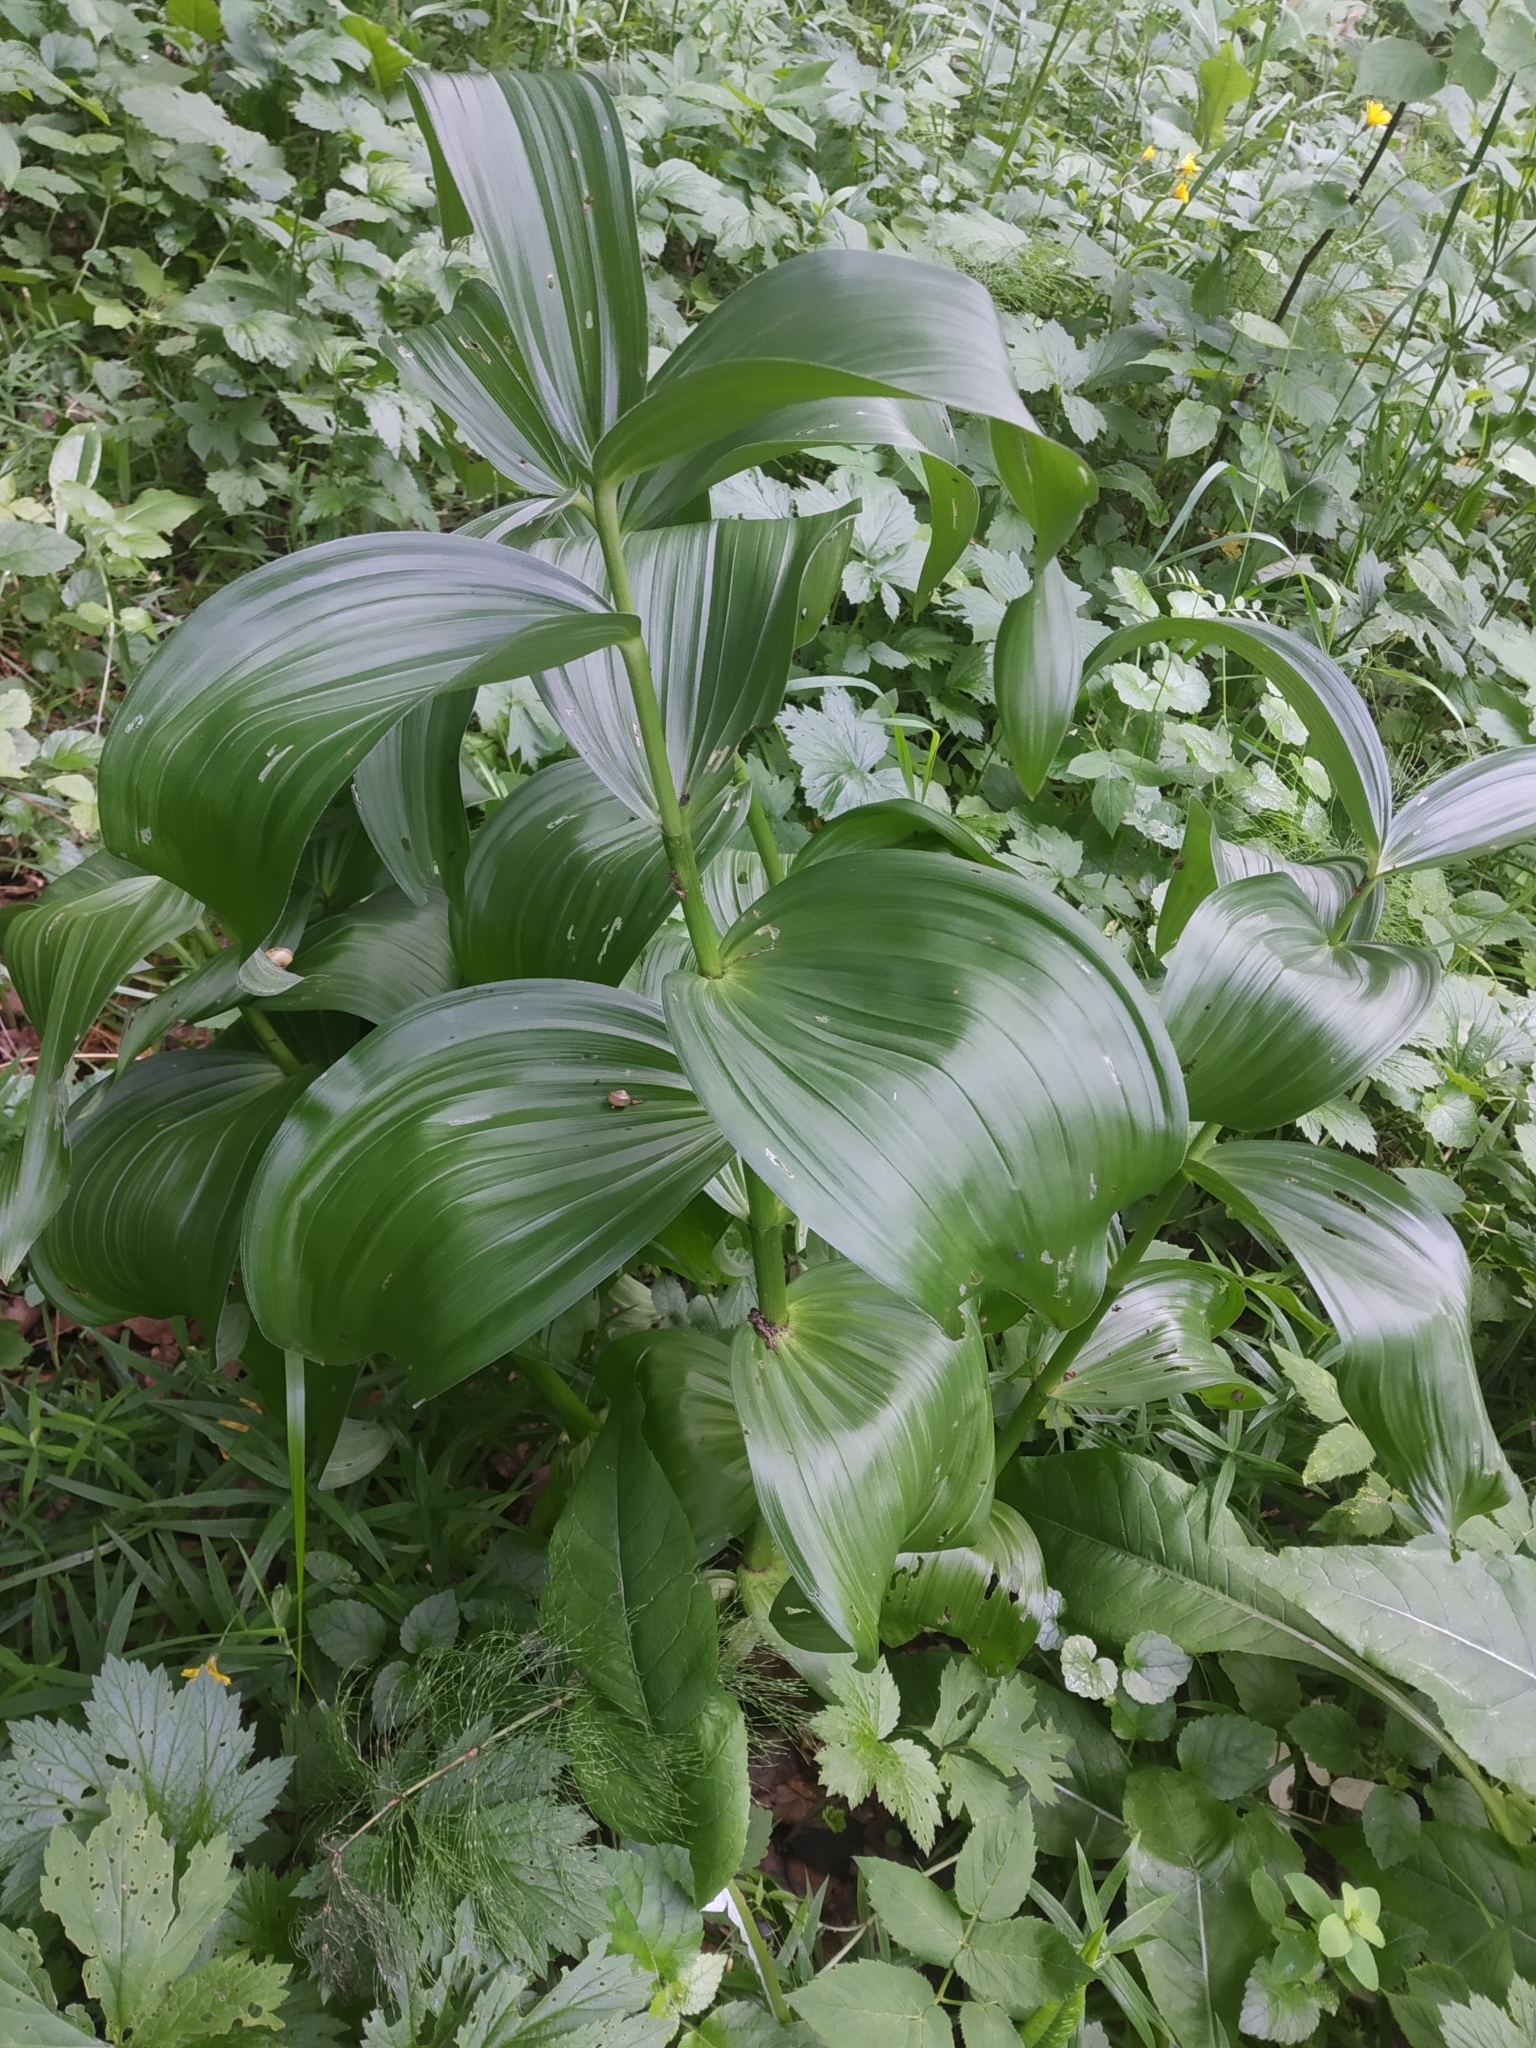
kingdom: Plantae
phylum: Tracheophyta
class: Liliopsida
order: Liliales
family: Melanthiaceae
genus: Veratrum
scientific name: Veratrum lobelianum
